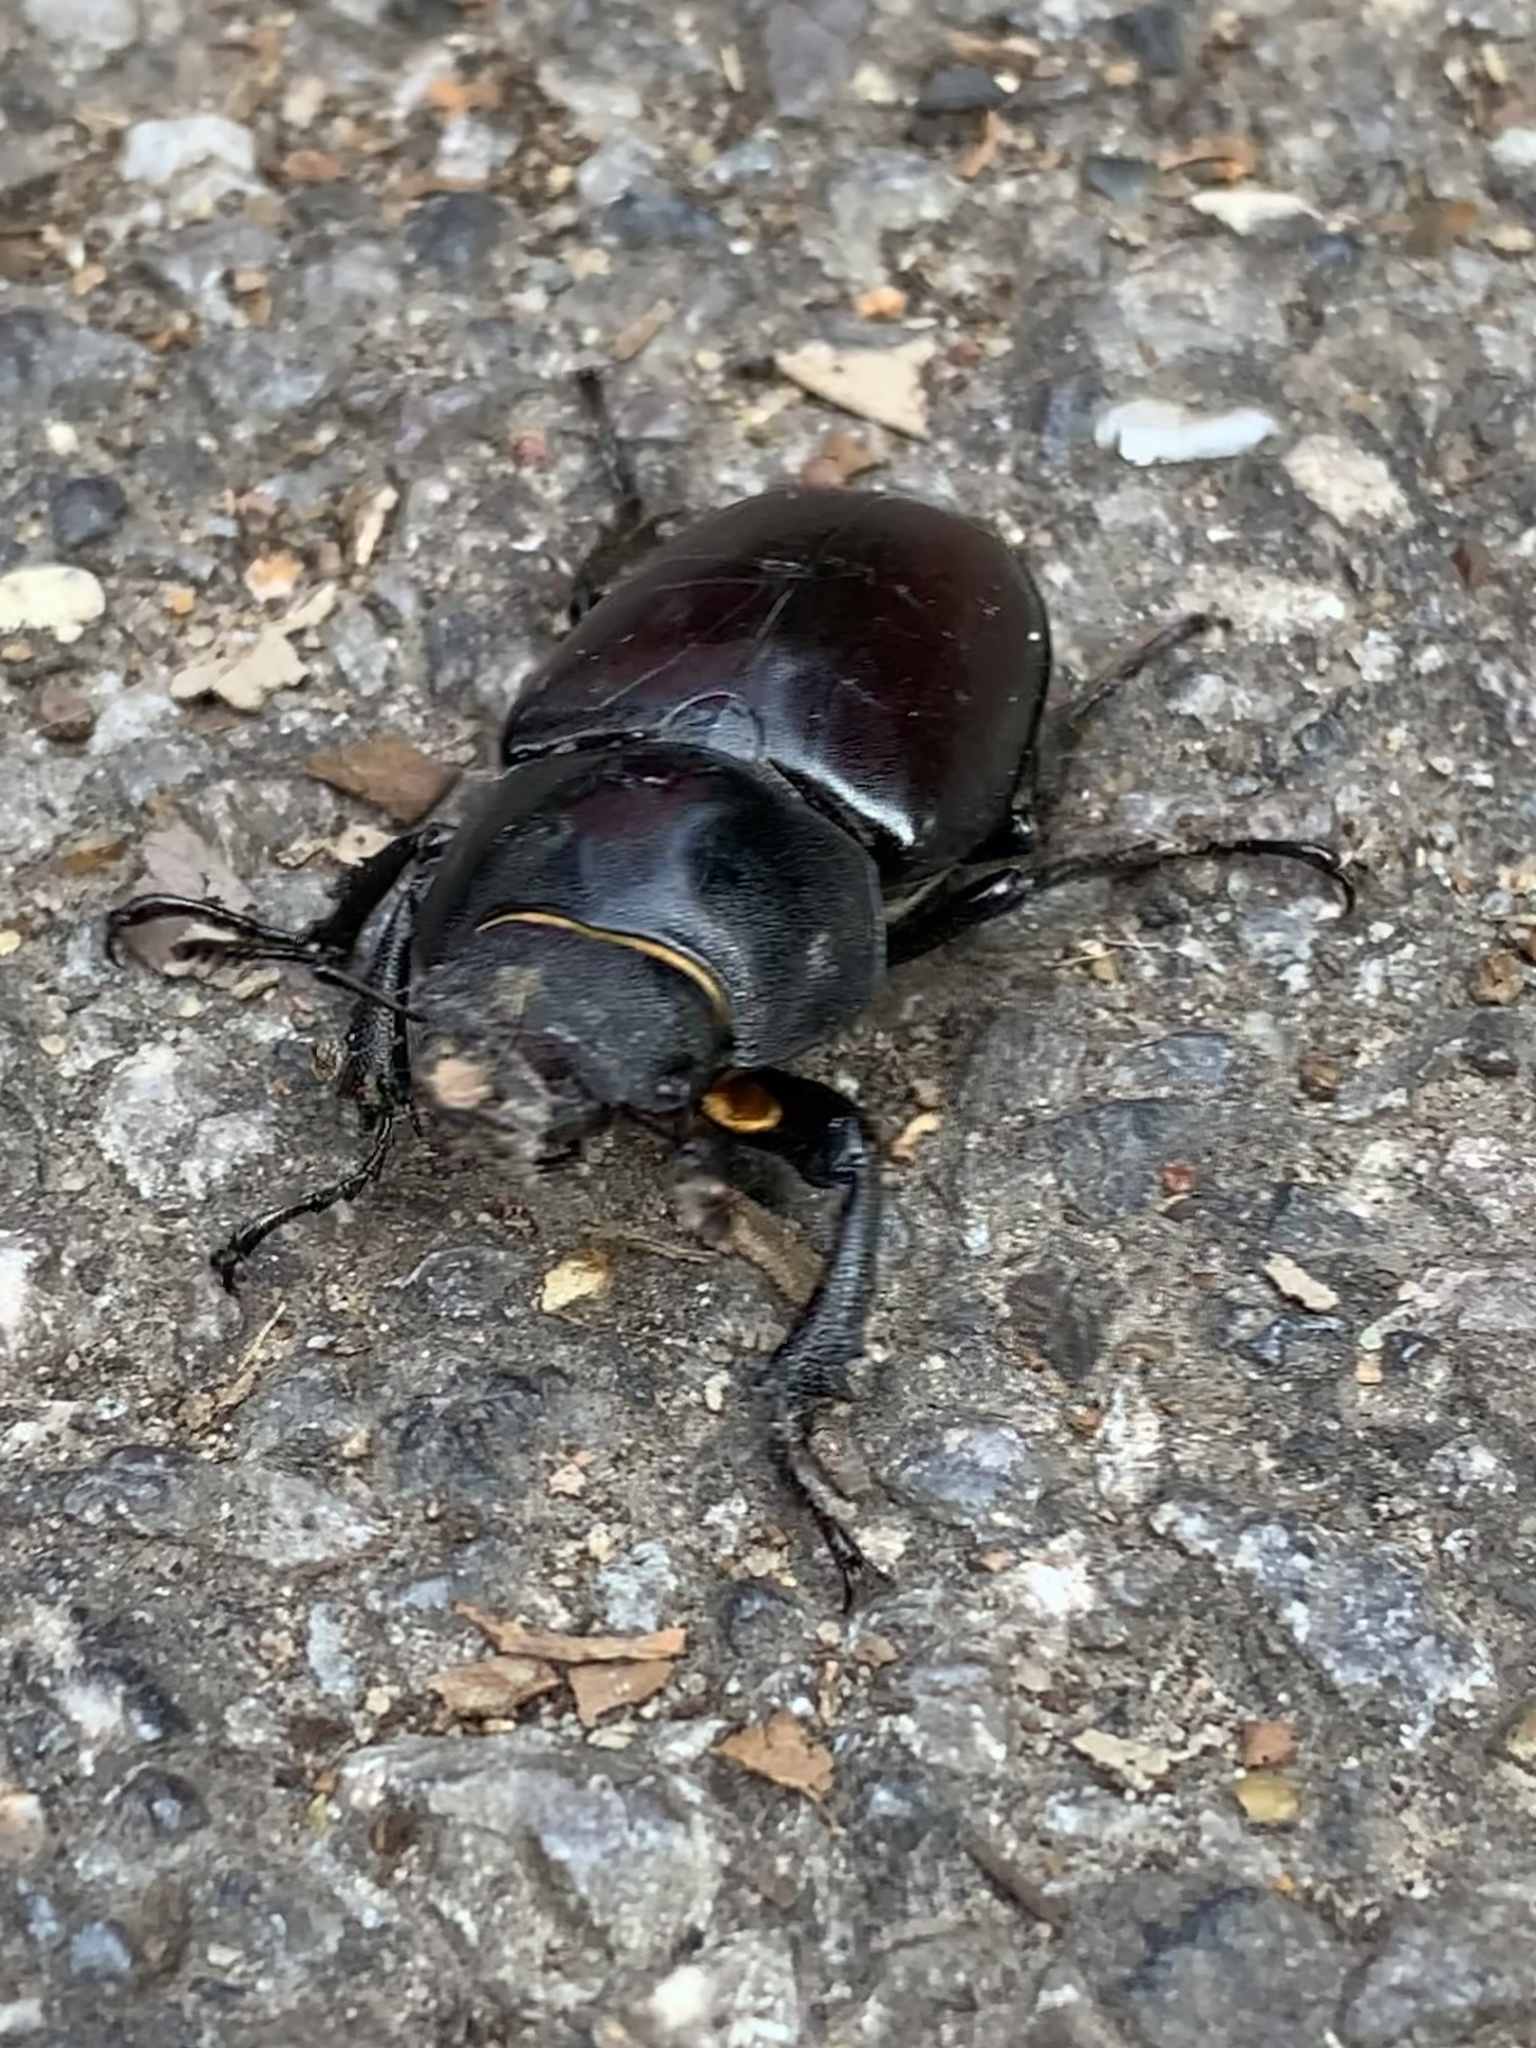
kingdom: Animalia
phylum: Arthropoda
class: Insecta
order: Coleoptera
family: Lucanidae
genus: Lucanus
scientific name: Lucanus cervus
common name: Stag beetle
